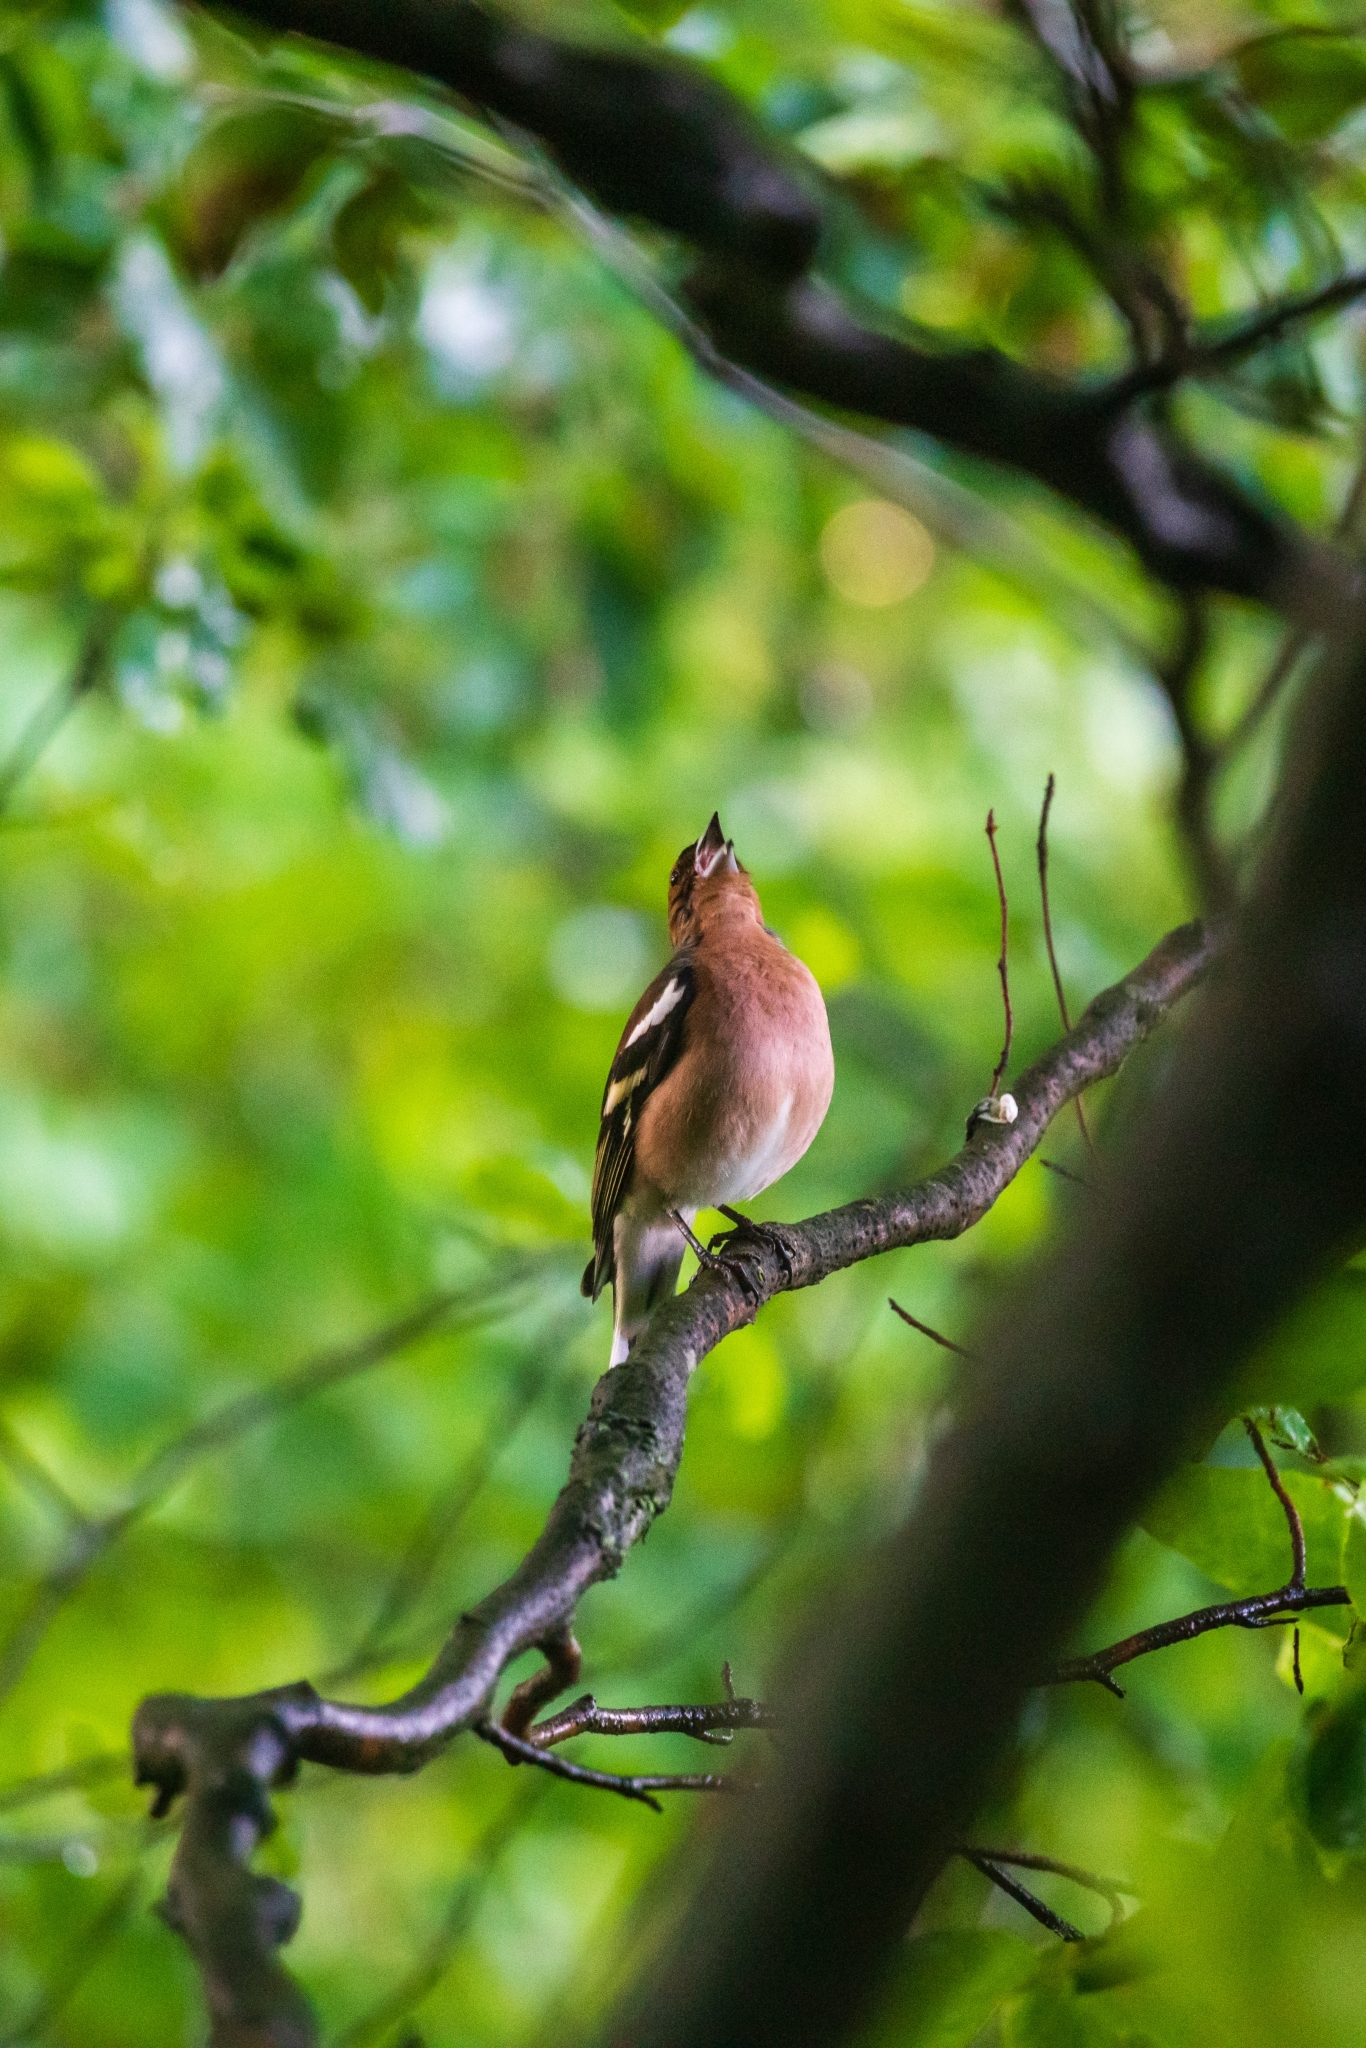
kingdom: Animalia
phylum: Chordata
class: Aves
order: Passeriformes
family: Fringillidae
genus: Fringilla
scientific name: Fringilla coelebs
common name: Common chaffinch
